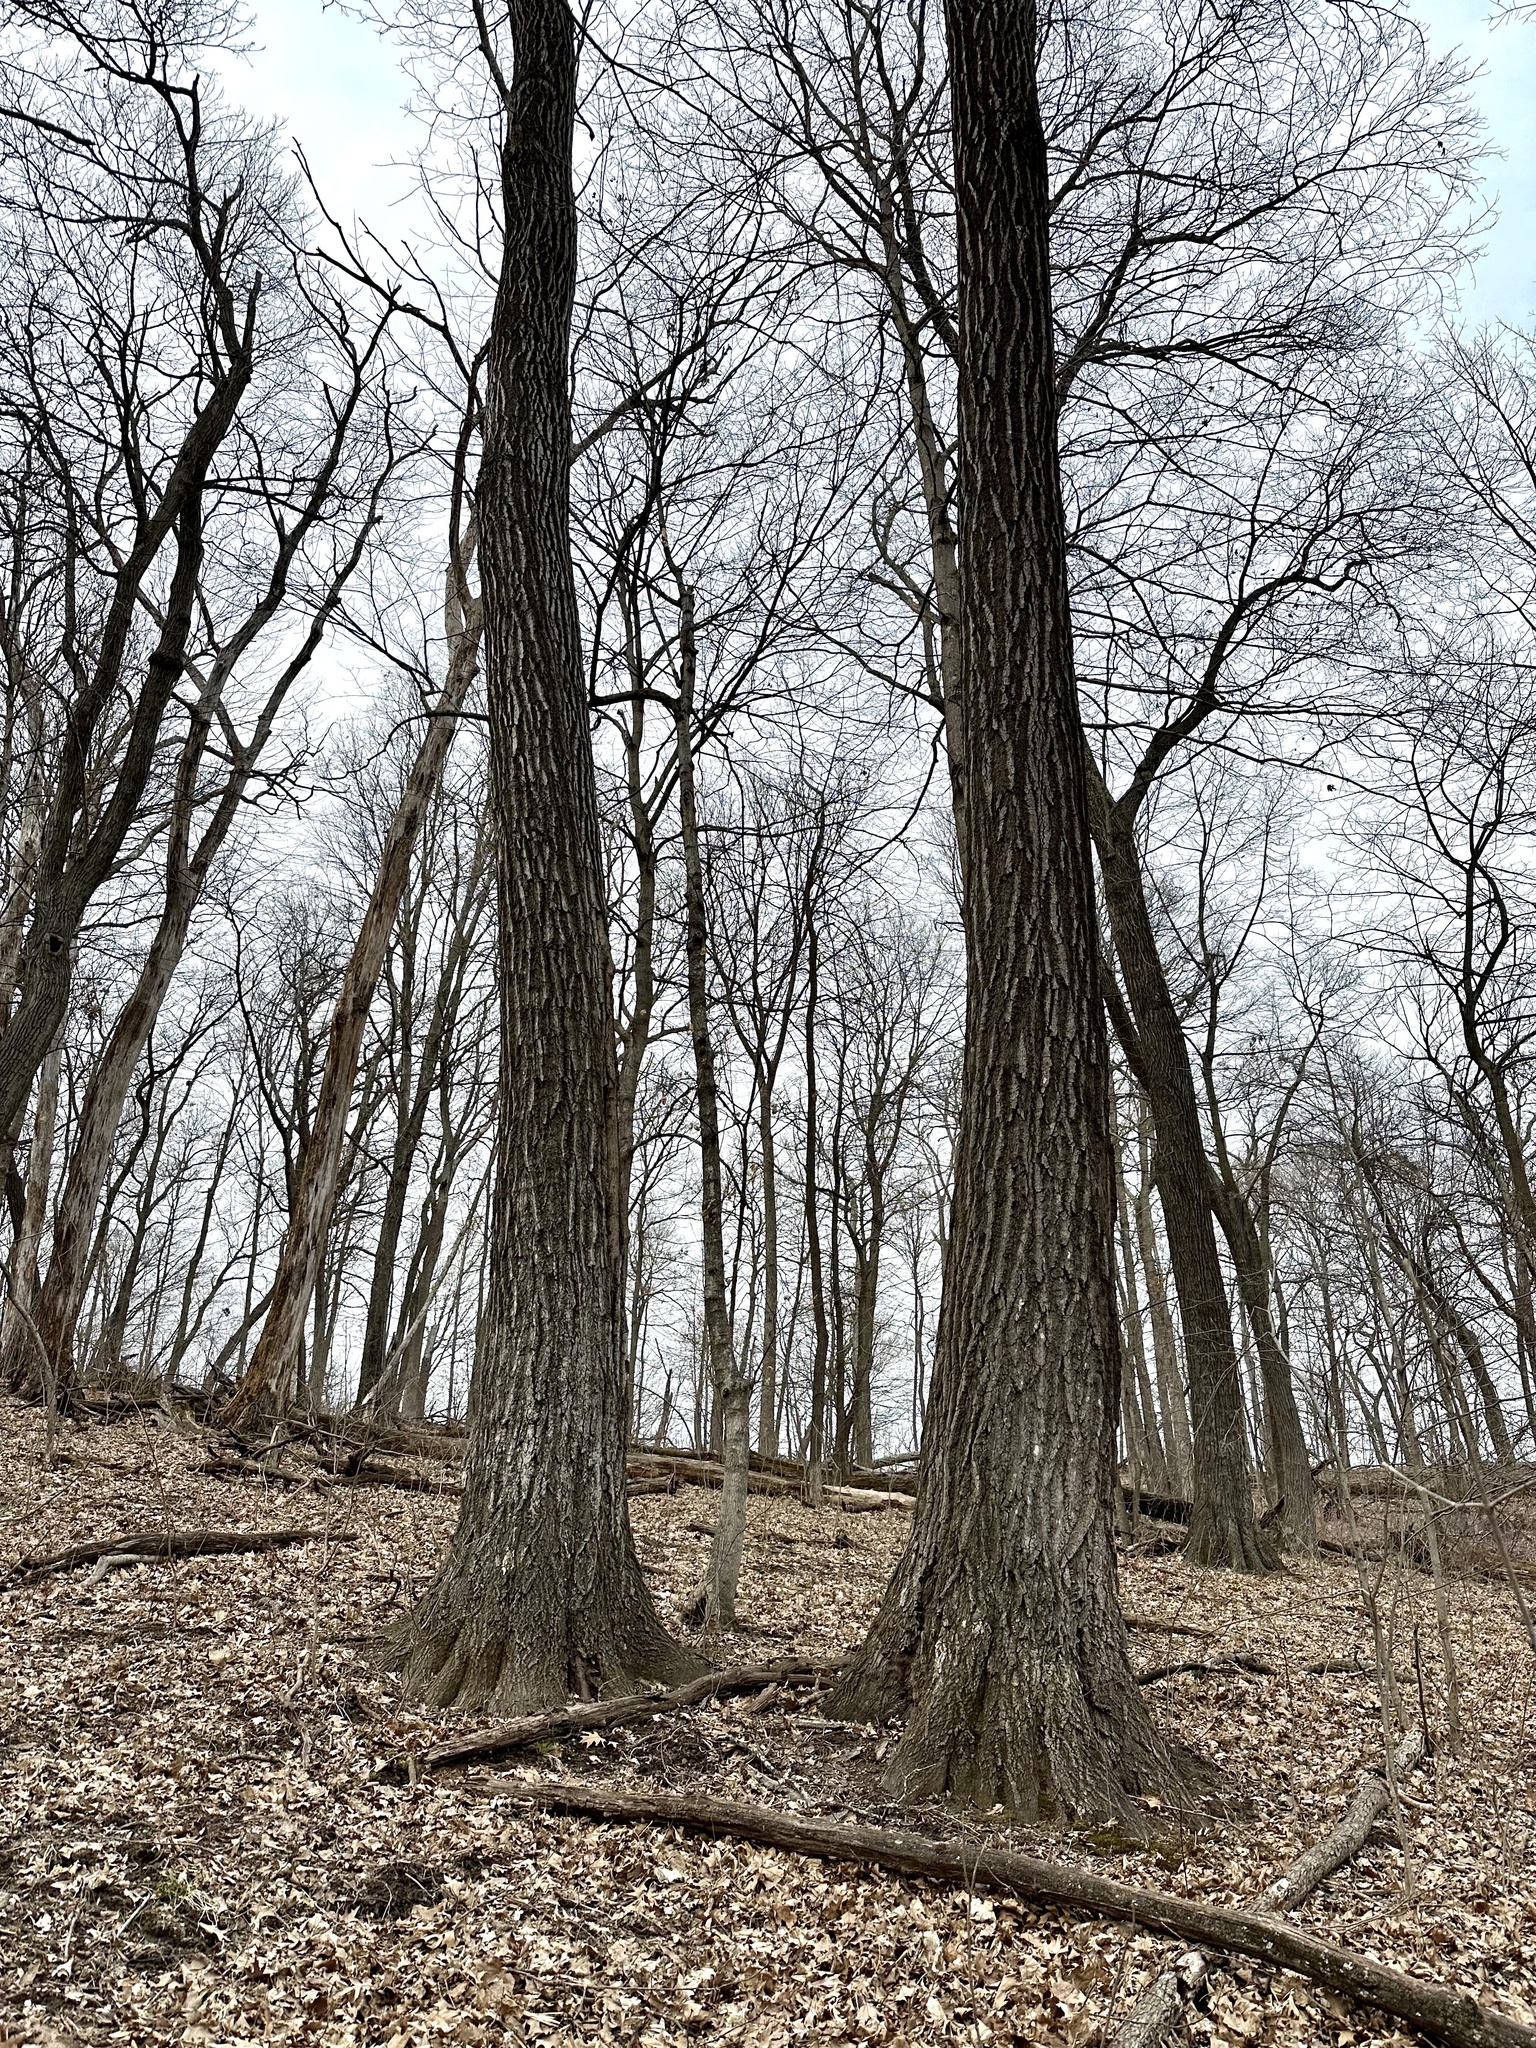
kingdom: Plantae
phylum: Tracheophyta
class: Magnoliopsida
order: Fagales
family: Fagaceae
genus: Quercus
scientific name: Quercus rubra
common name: Red oak
